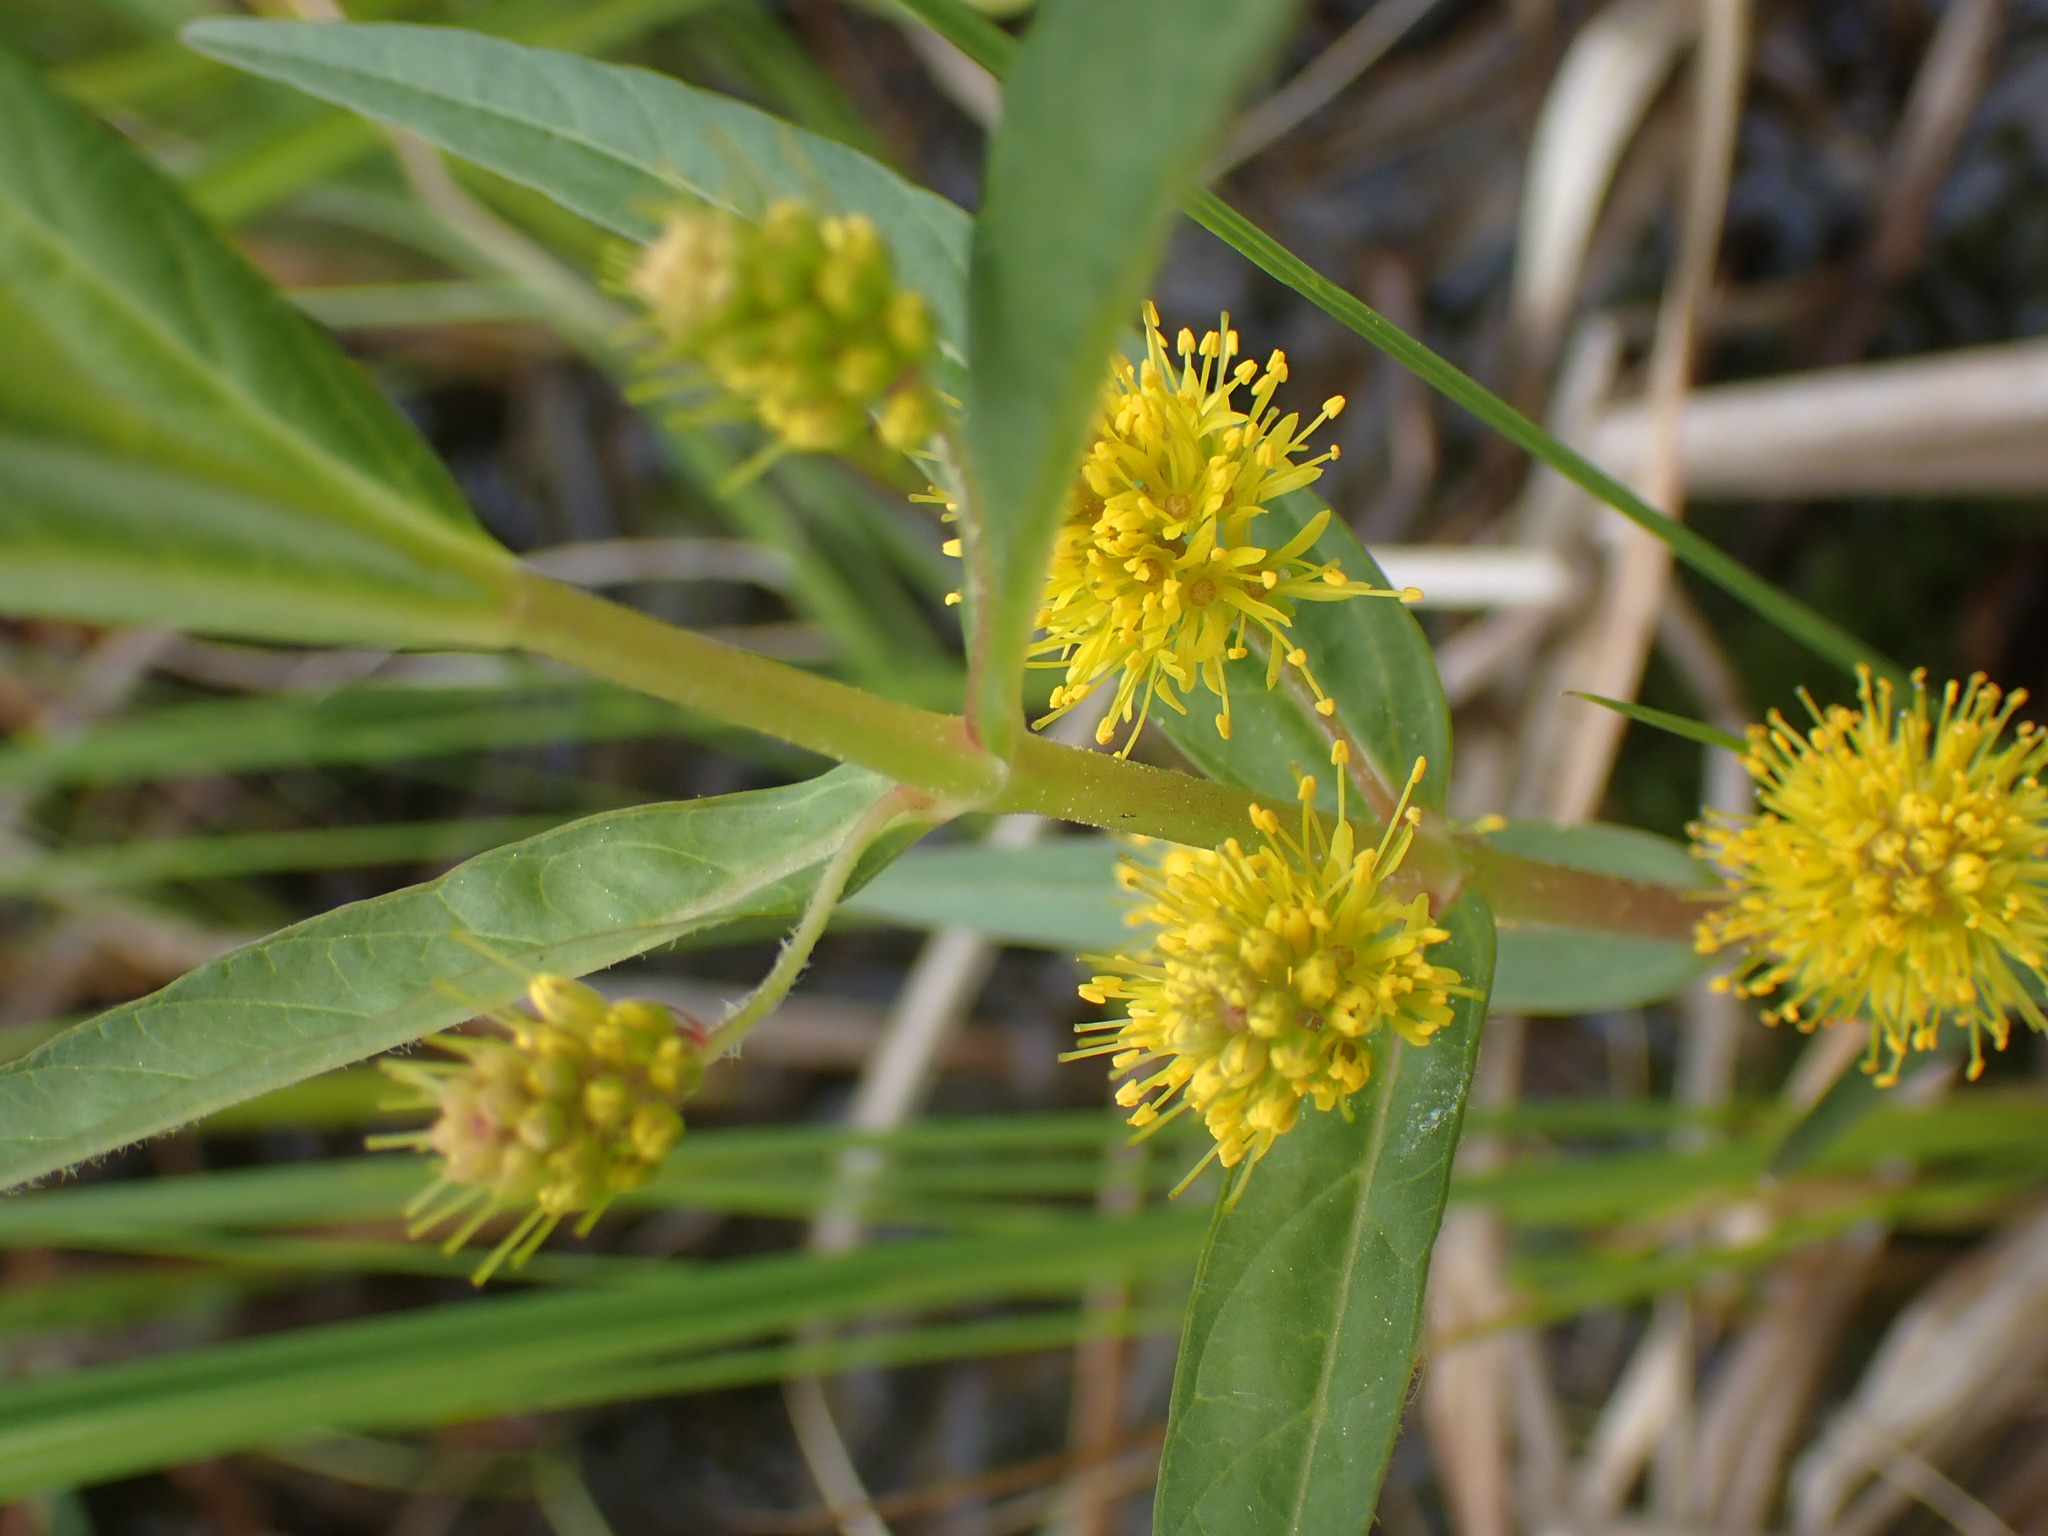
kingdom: Plantae
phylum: Tracheophyta
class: Magnoliopsida
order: Ericales
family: Primulaceae
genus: Lysimachia
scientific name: Lysimachia thyrsiflora
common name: Tufted loosestrife
